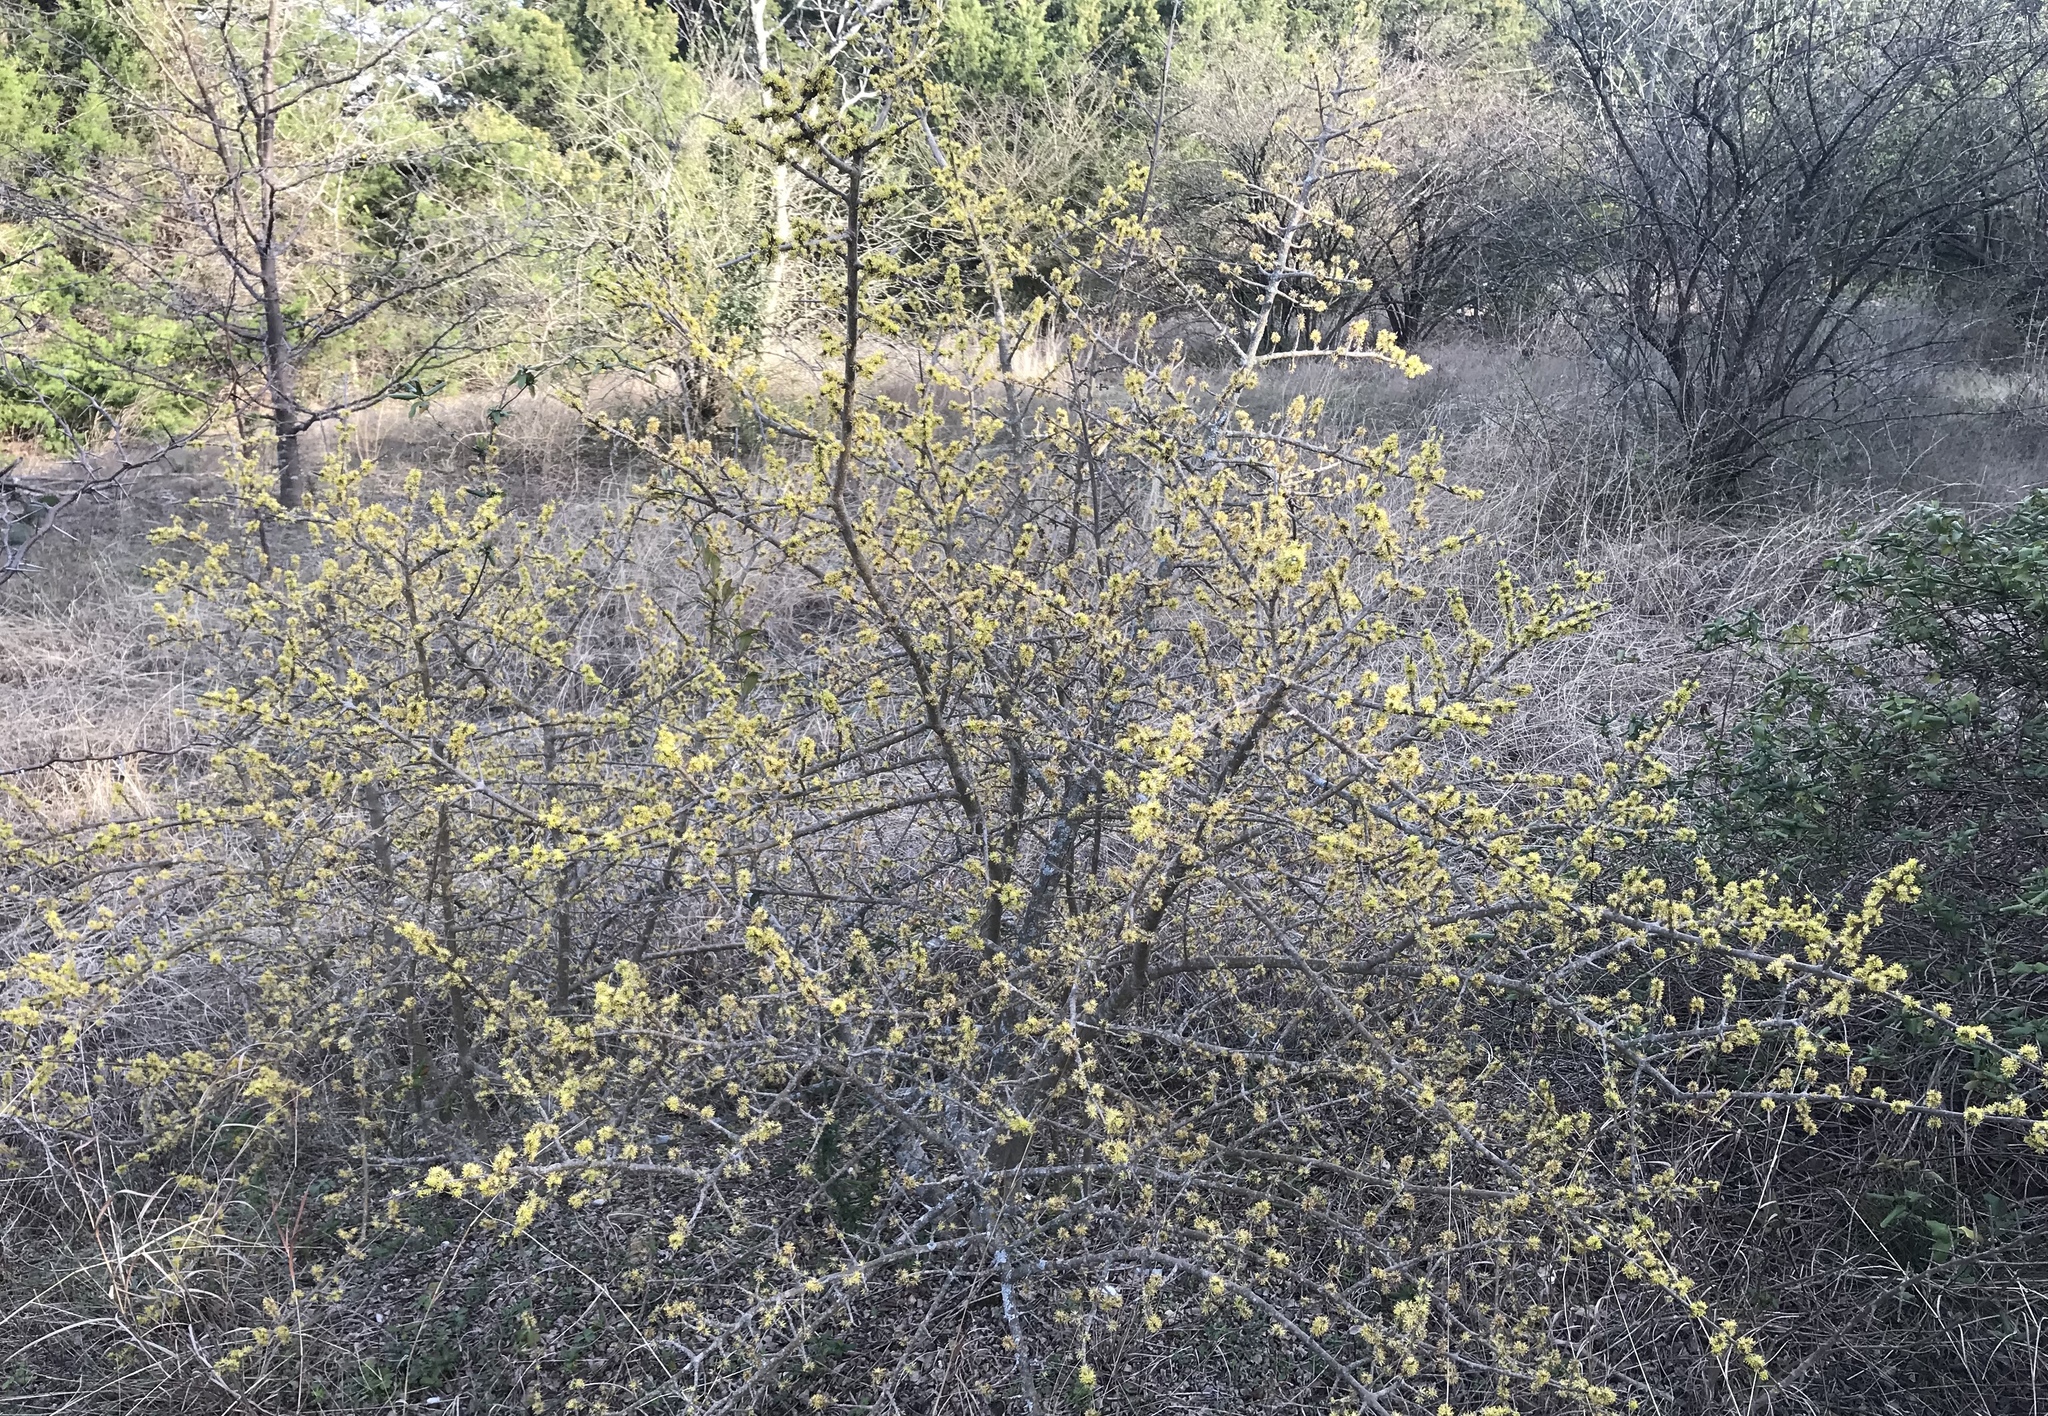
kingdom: Plantae
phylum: Tracheophyta
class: Magnoliopsida
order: Lamiales
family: Oleaceae
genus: Forestiera
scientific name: Forestiera pubescens
